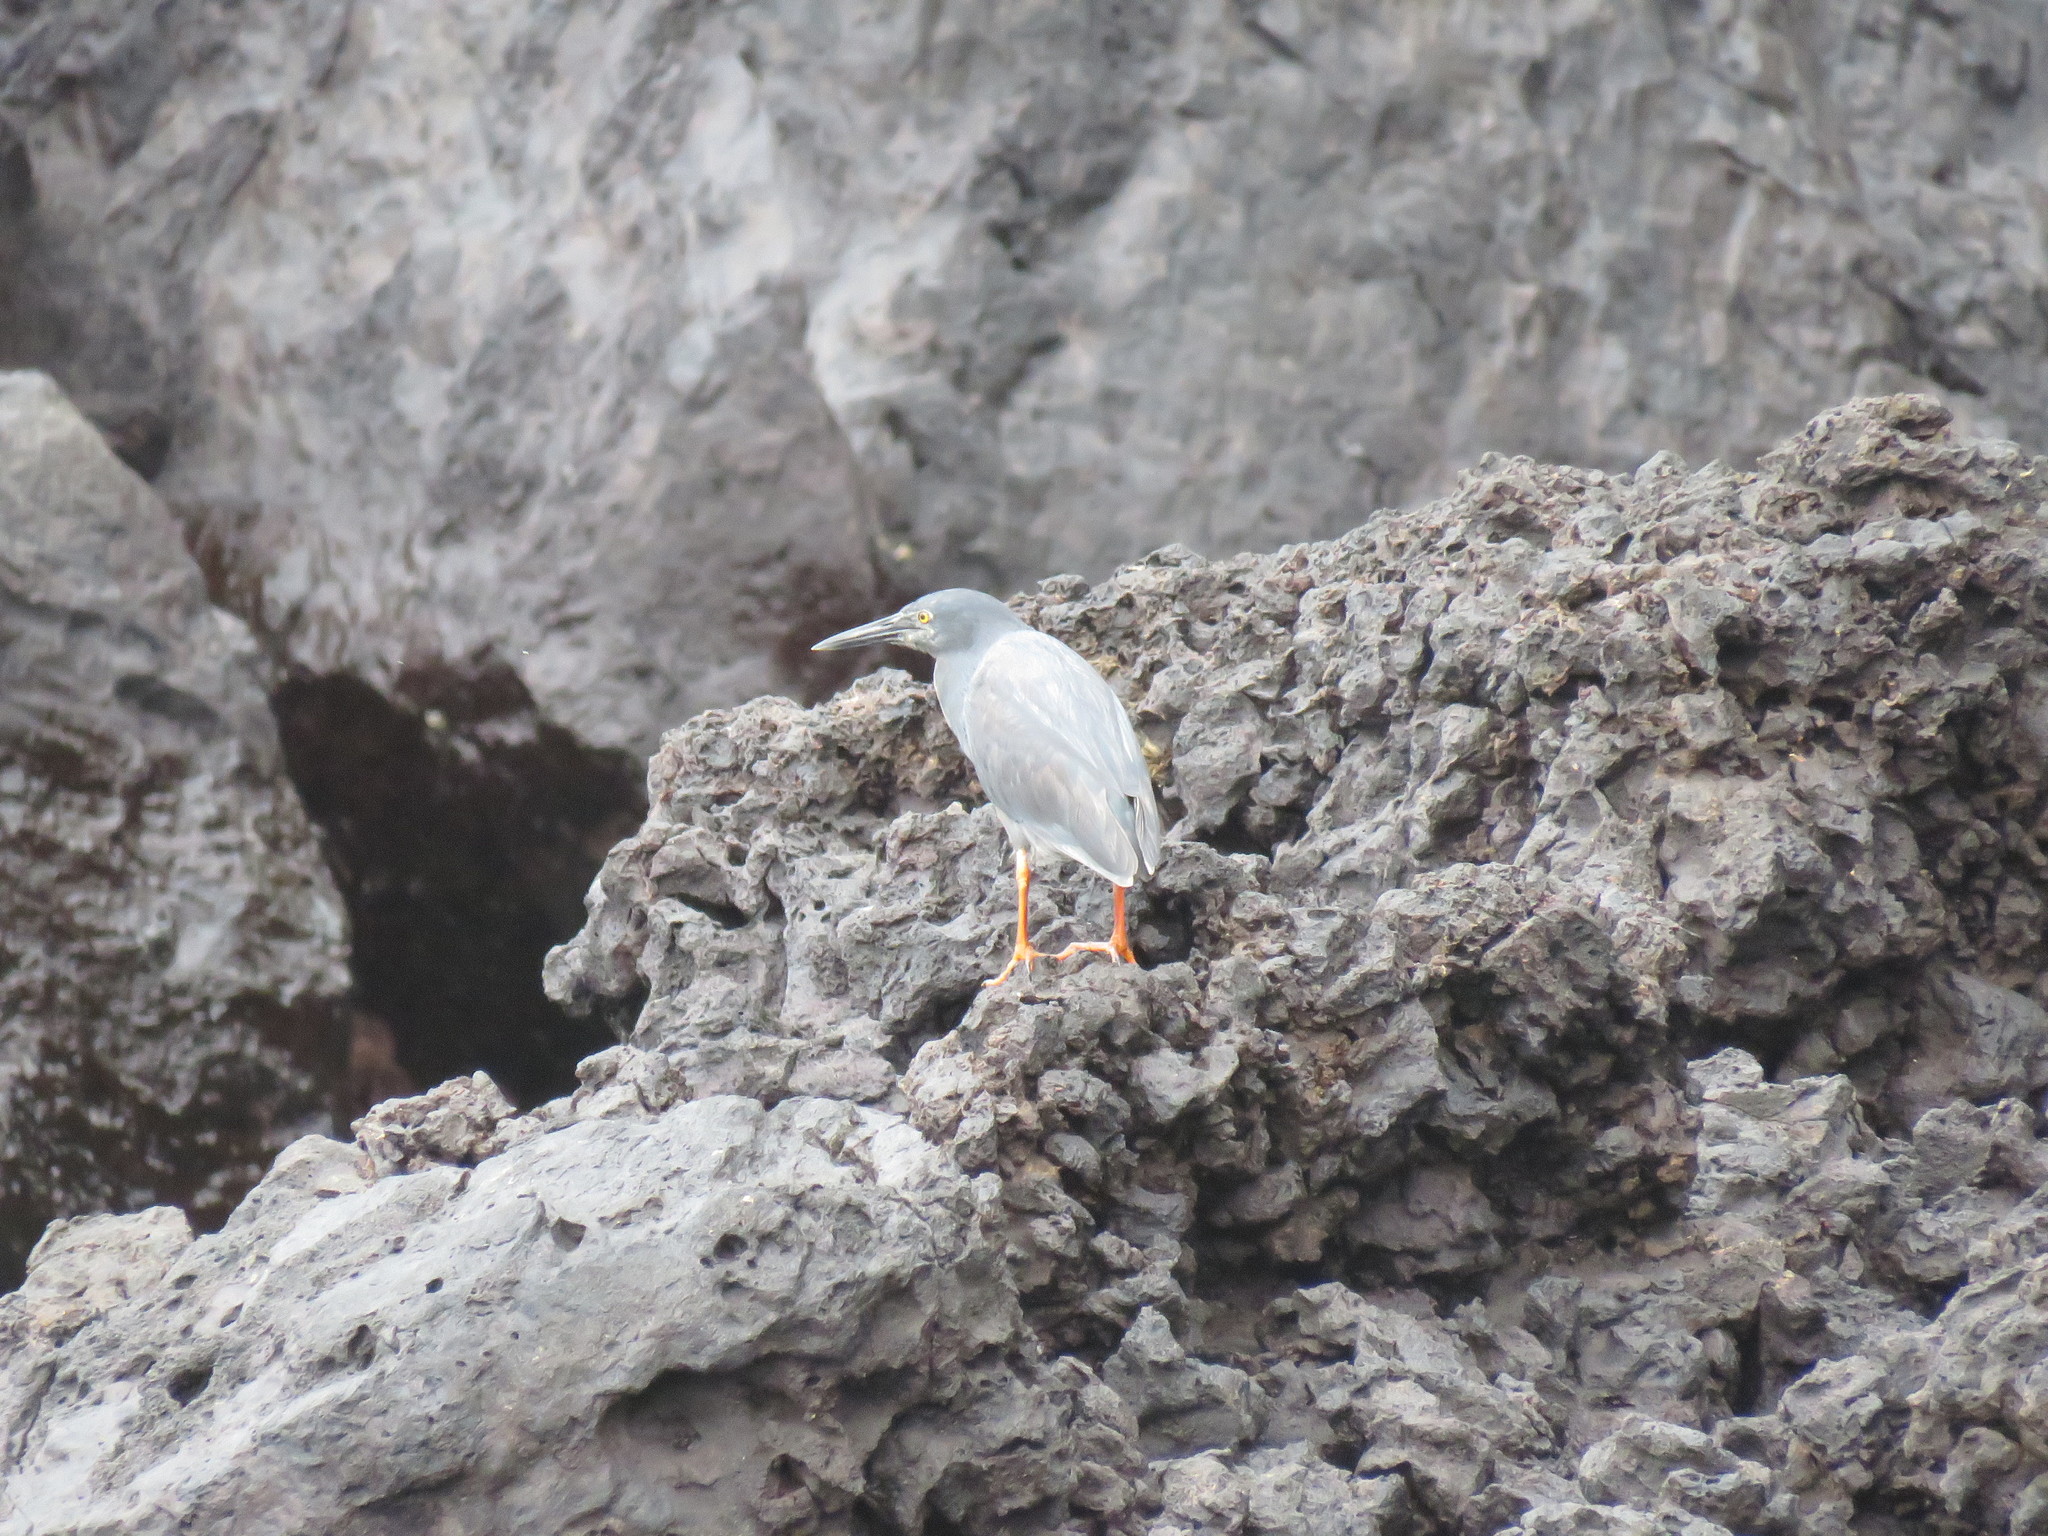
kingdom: Animalia
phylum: Chordata
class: Aves
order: Pelecaniformes
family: Ardeidae
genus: Butorides
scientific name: Butorides striata
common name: Striated heron
